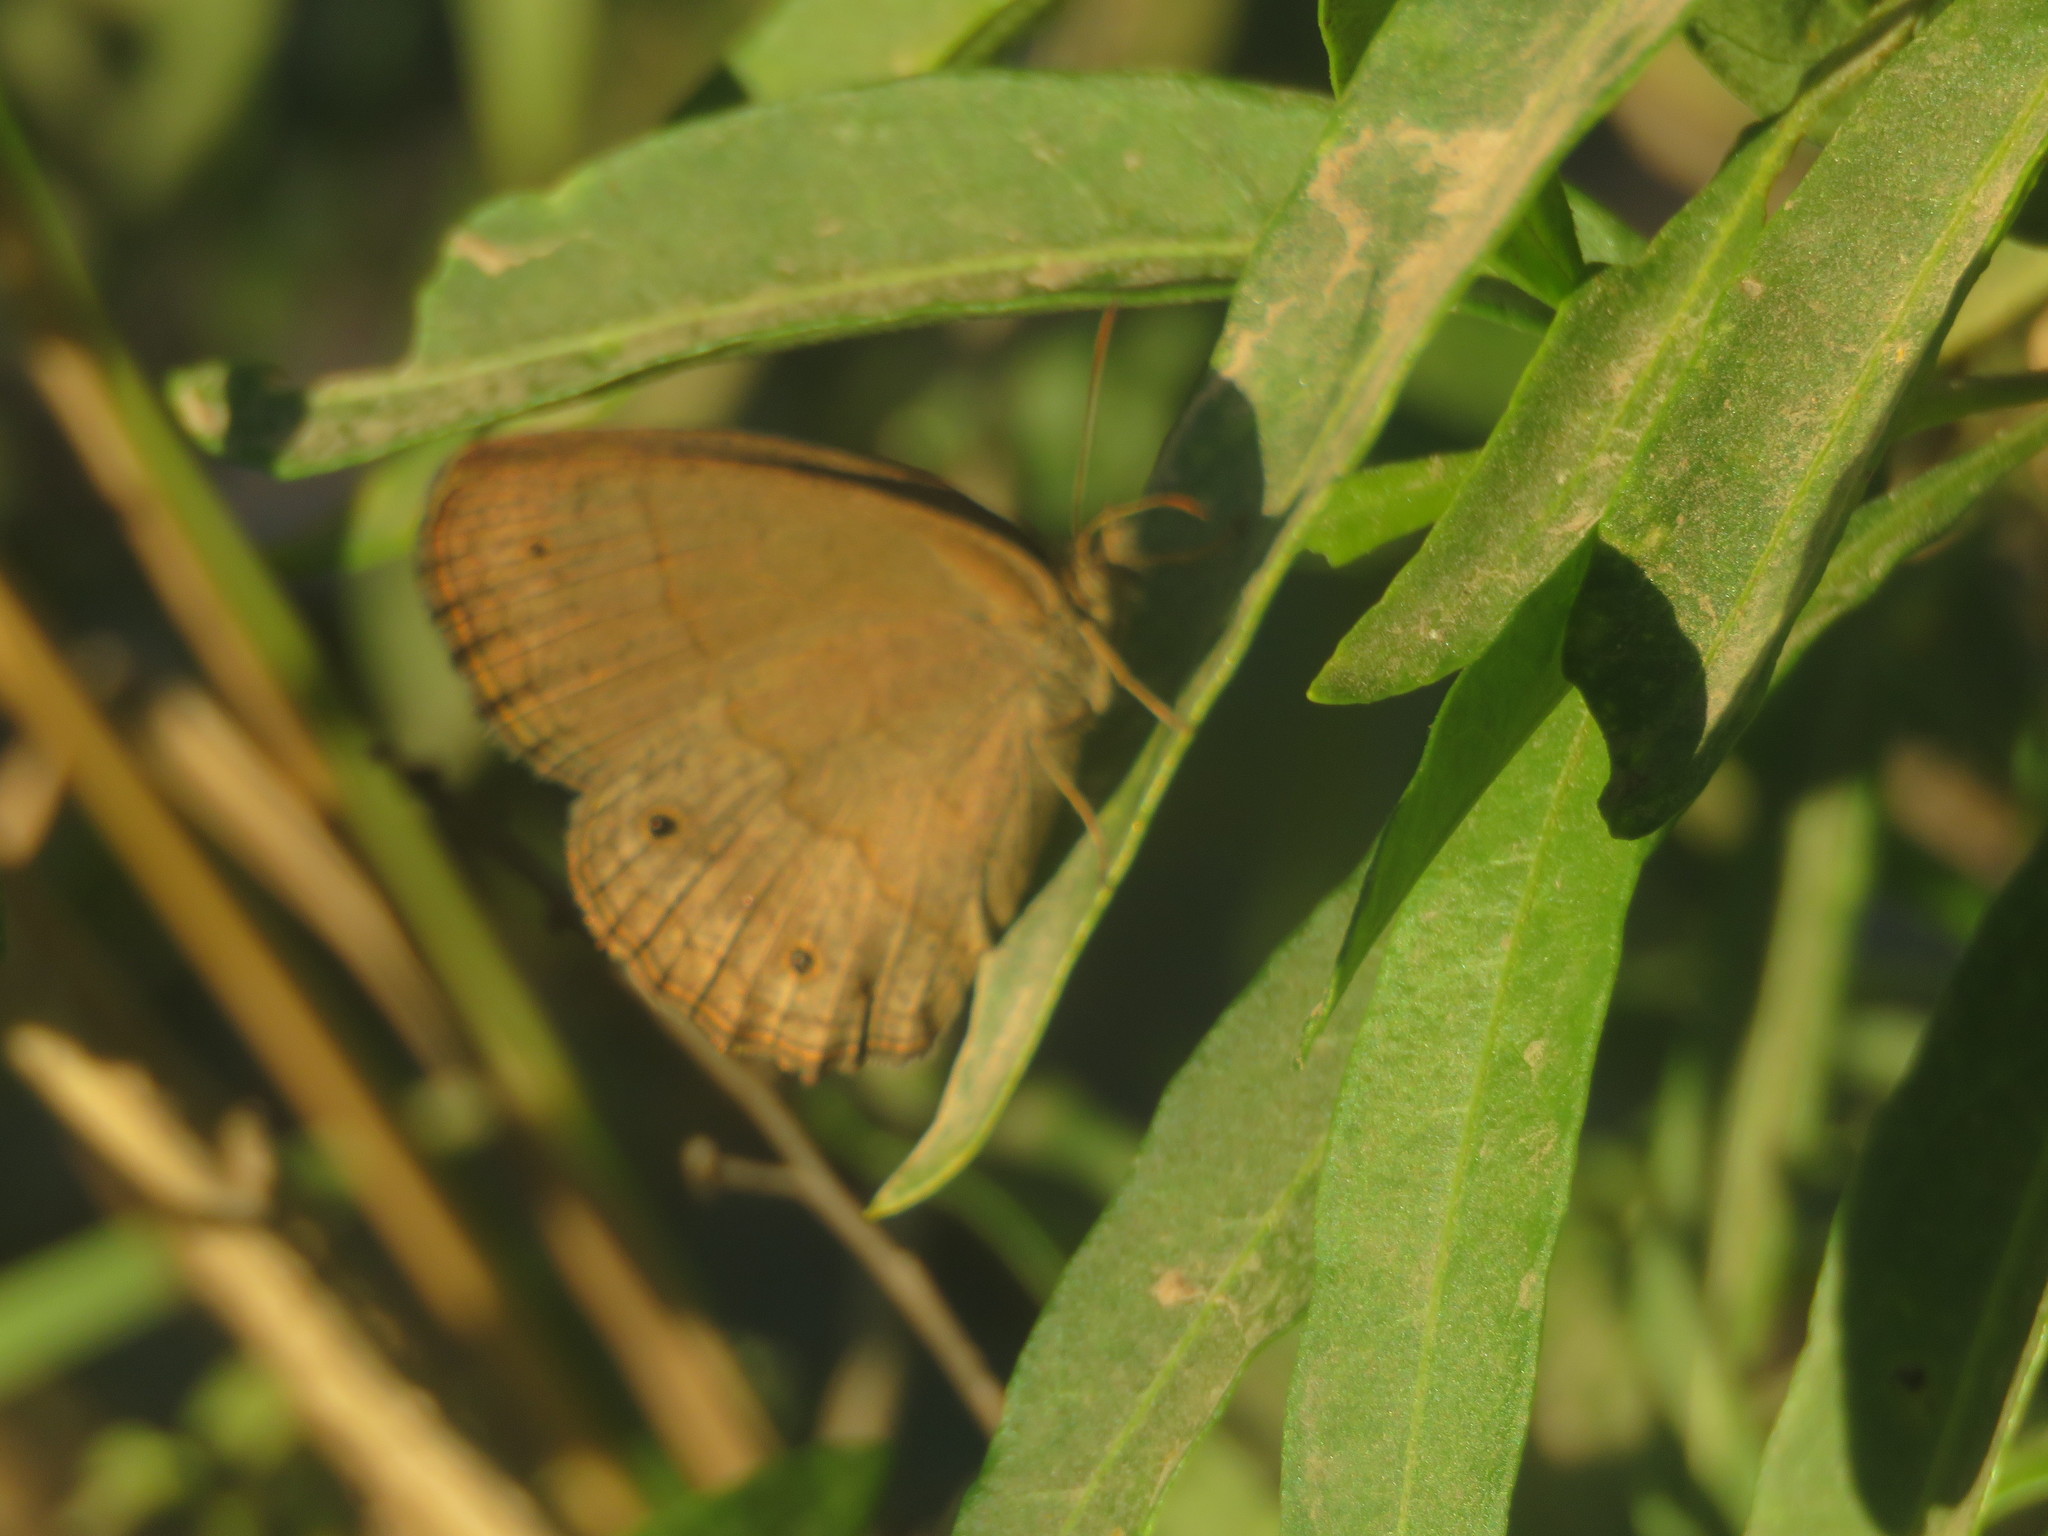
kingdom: Animalia
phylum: Arthropoda
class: Insecta
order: Lepidoptera
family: Nymphalidae
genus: Euptychia
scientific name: Euptychia
